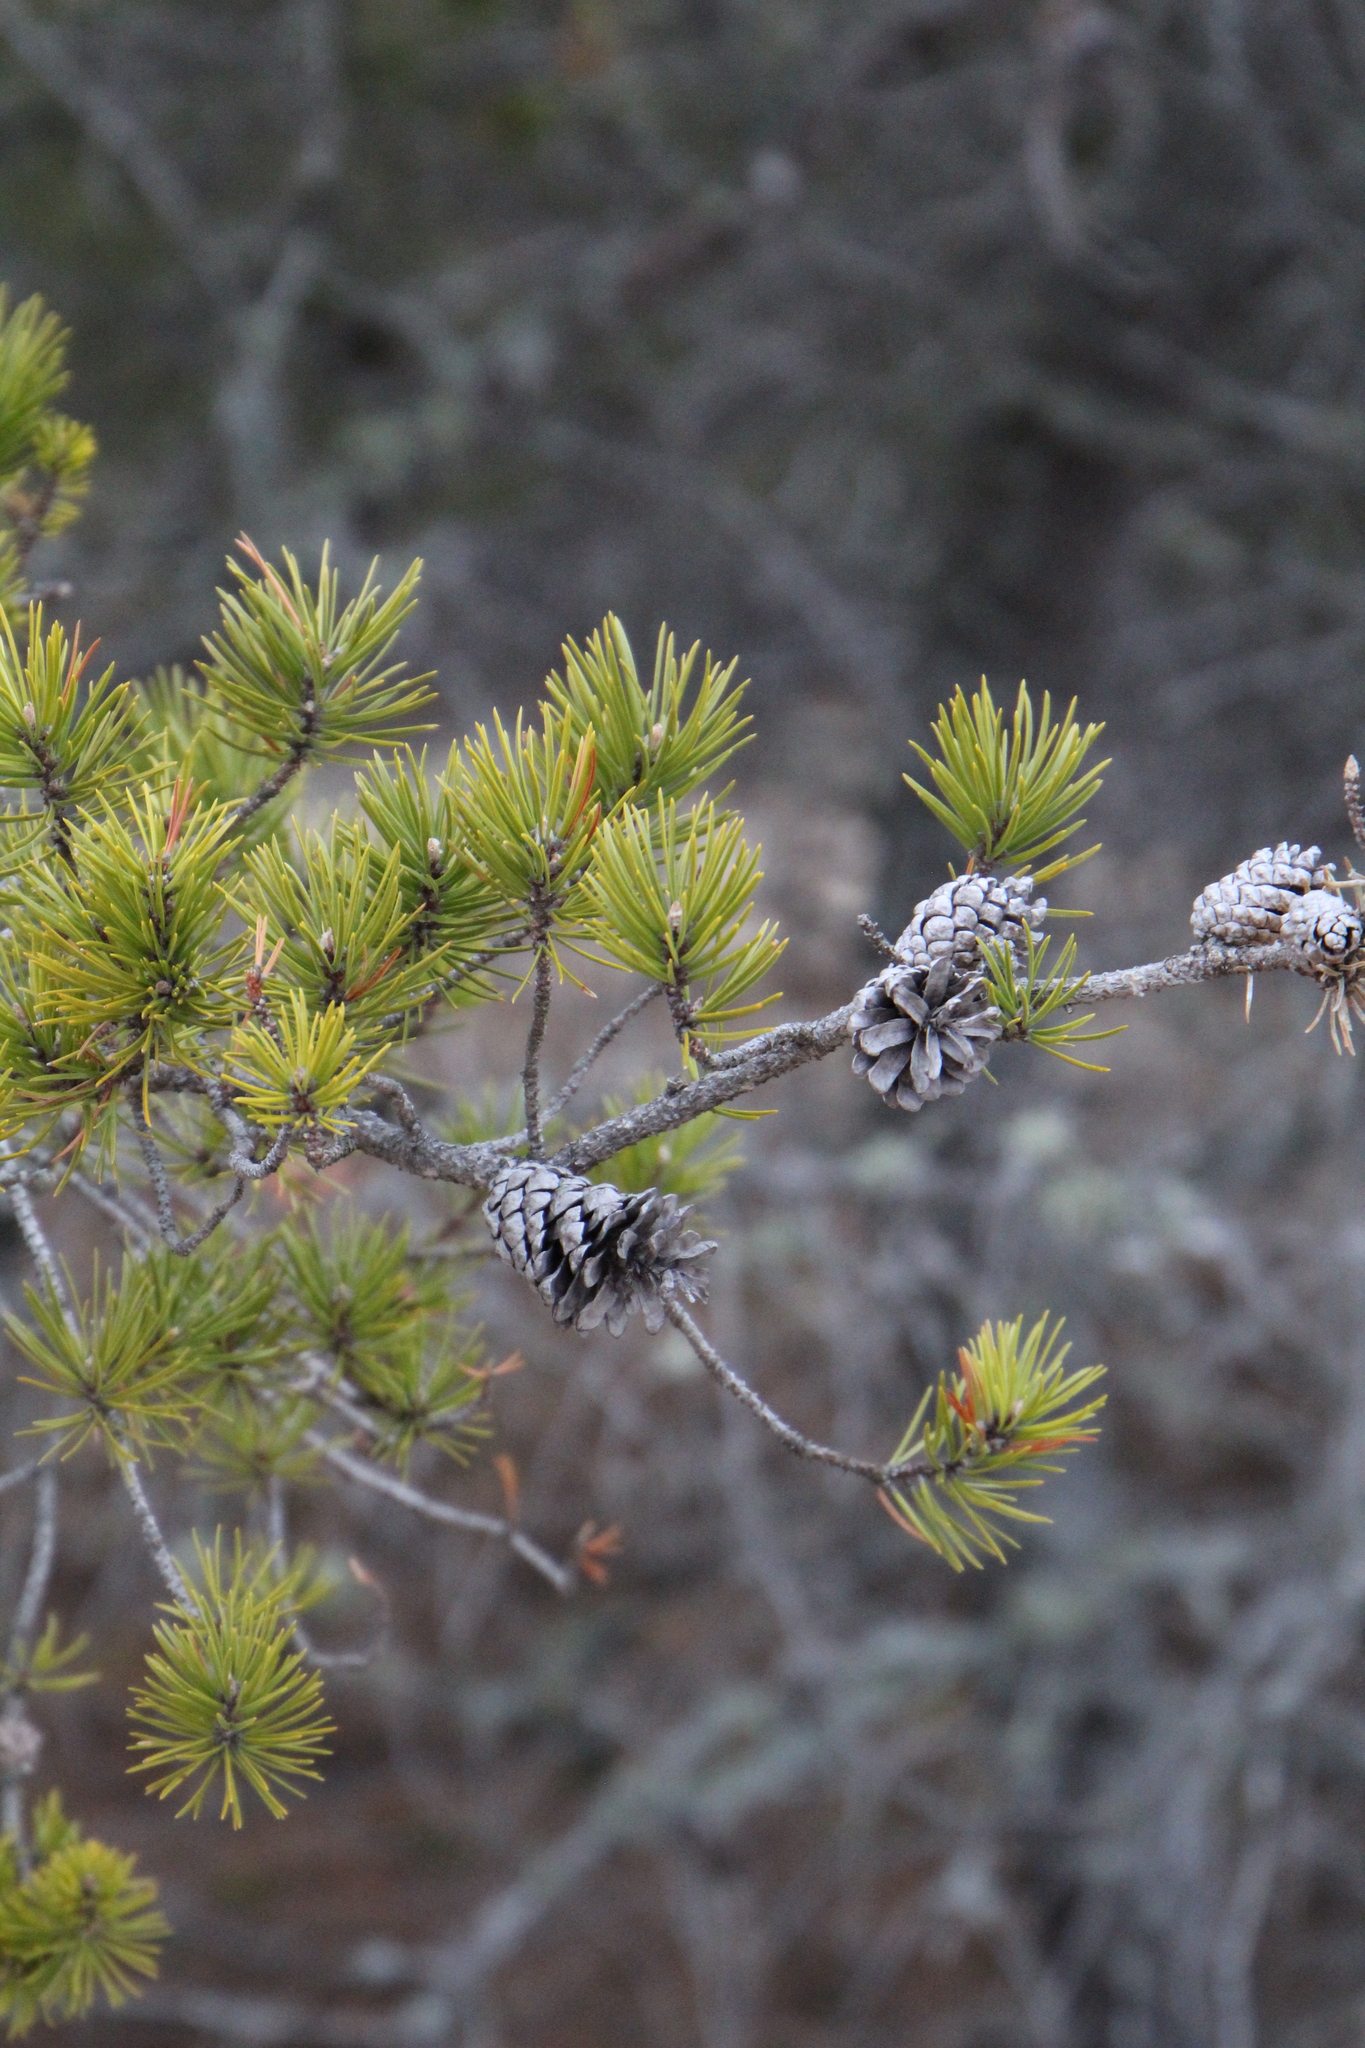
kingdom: Plantae
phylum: Tracheophyta
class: Pinopsida
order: Pinales
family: Pinaceae
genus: Pinus
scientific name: Pinus banksiana
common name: Jack pine
